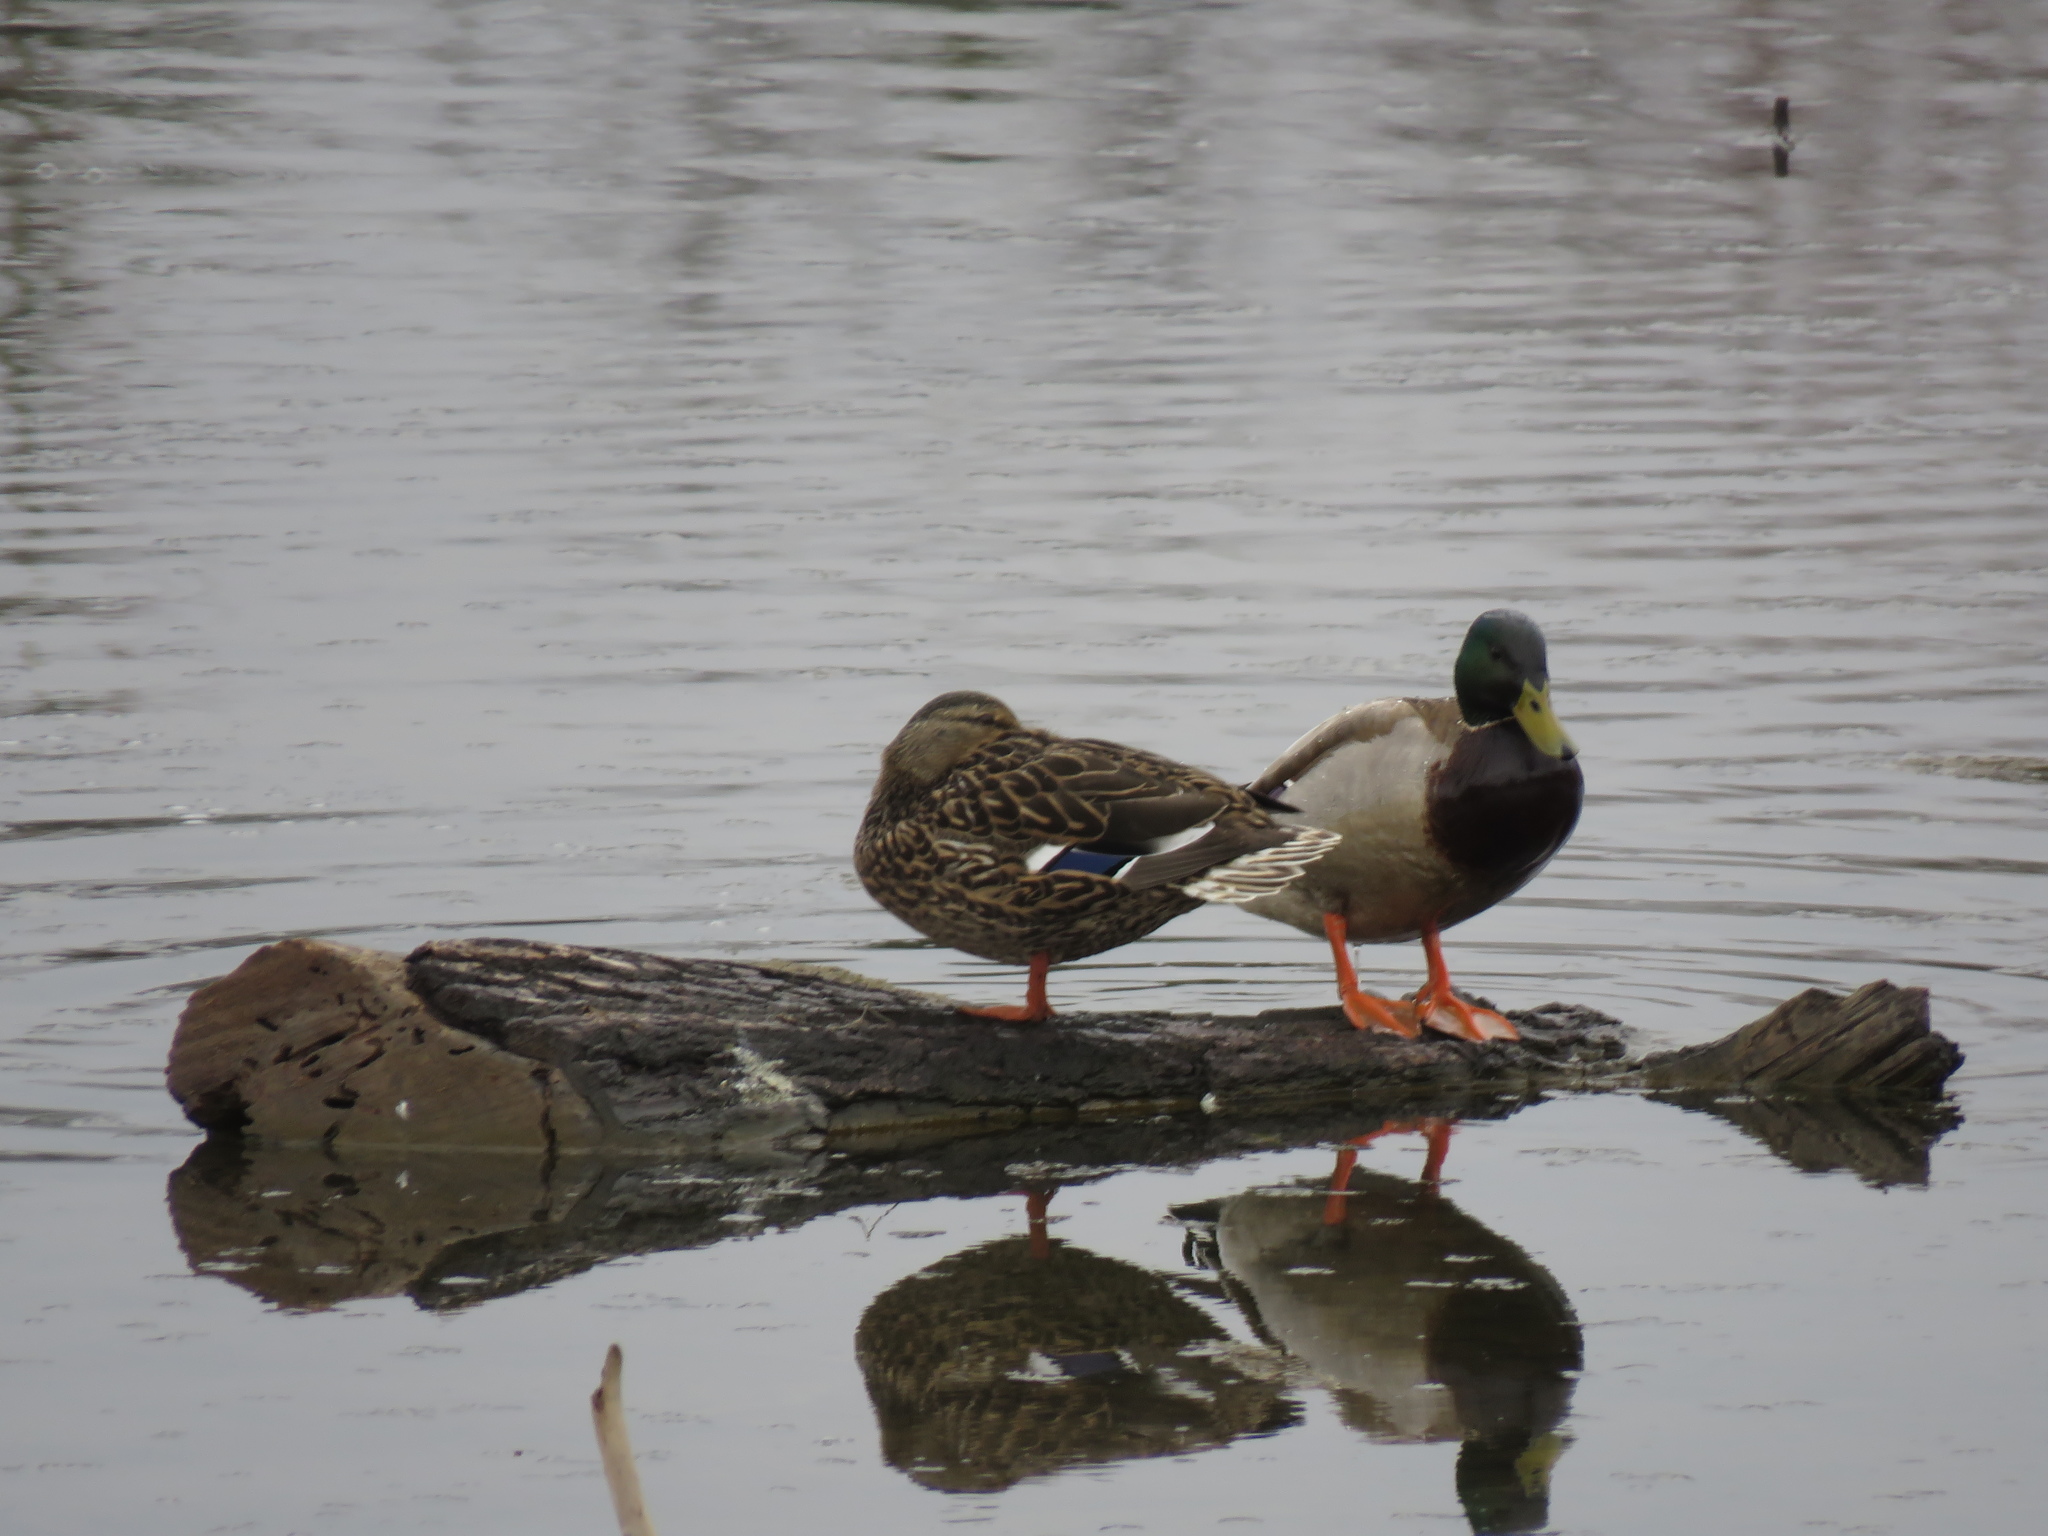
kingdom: Animalia
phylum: Chordata
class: Aves
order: Anseriformes
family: Anatidae
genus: Anas
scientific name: Anas platyrhynchos
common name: Mallard
